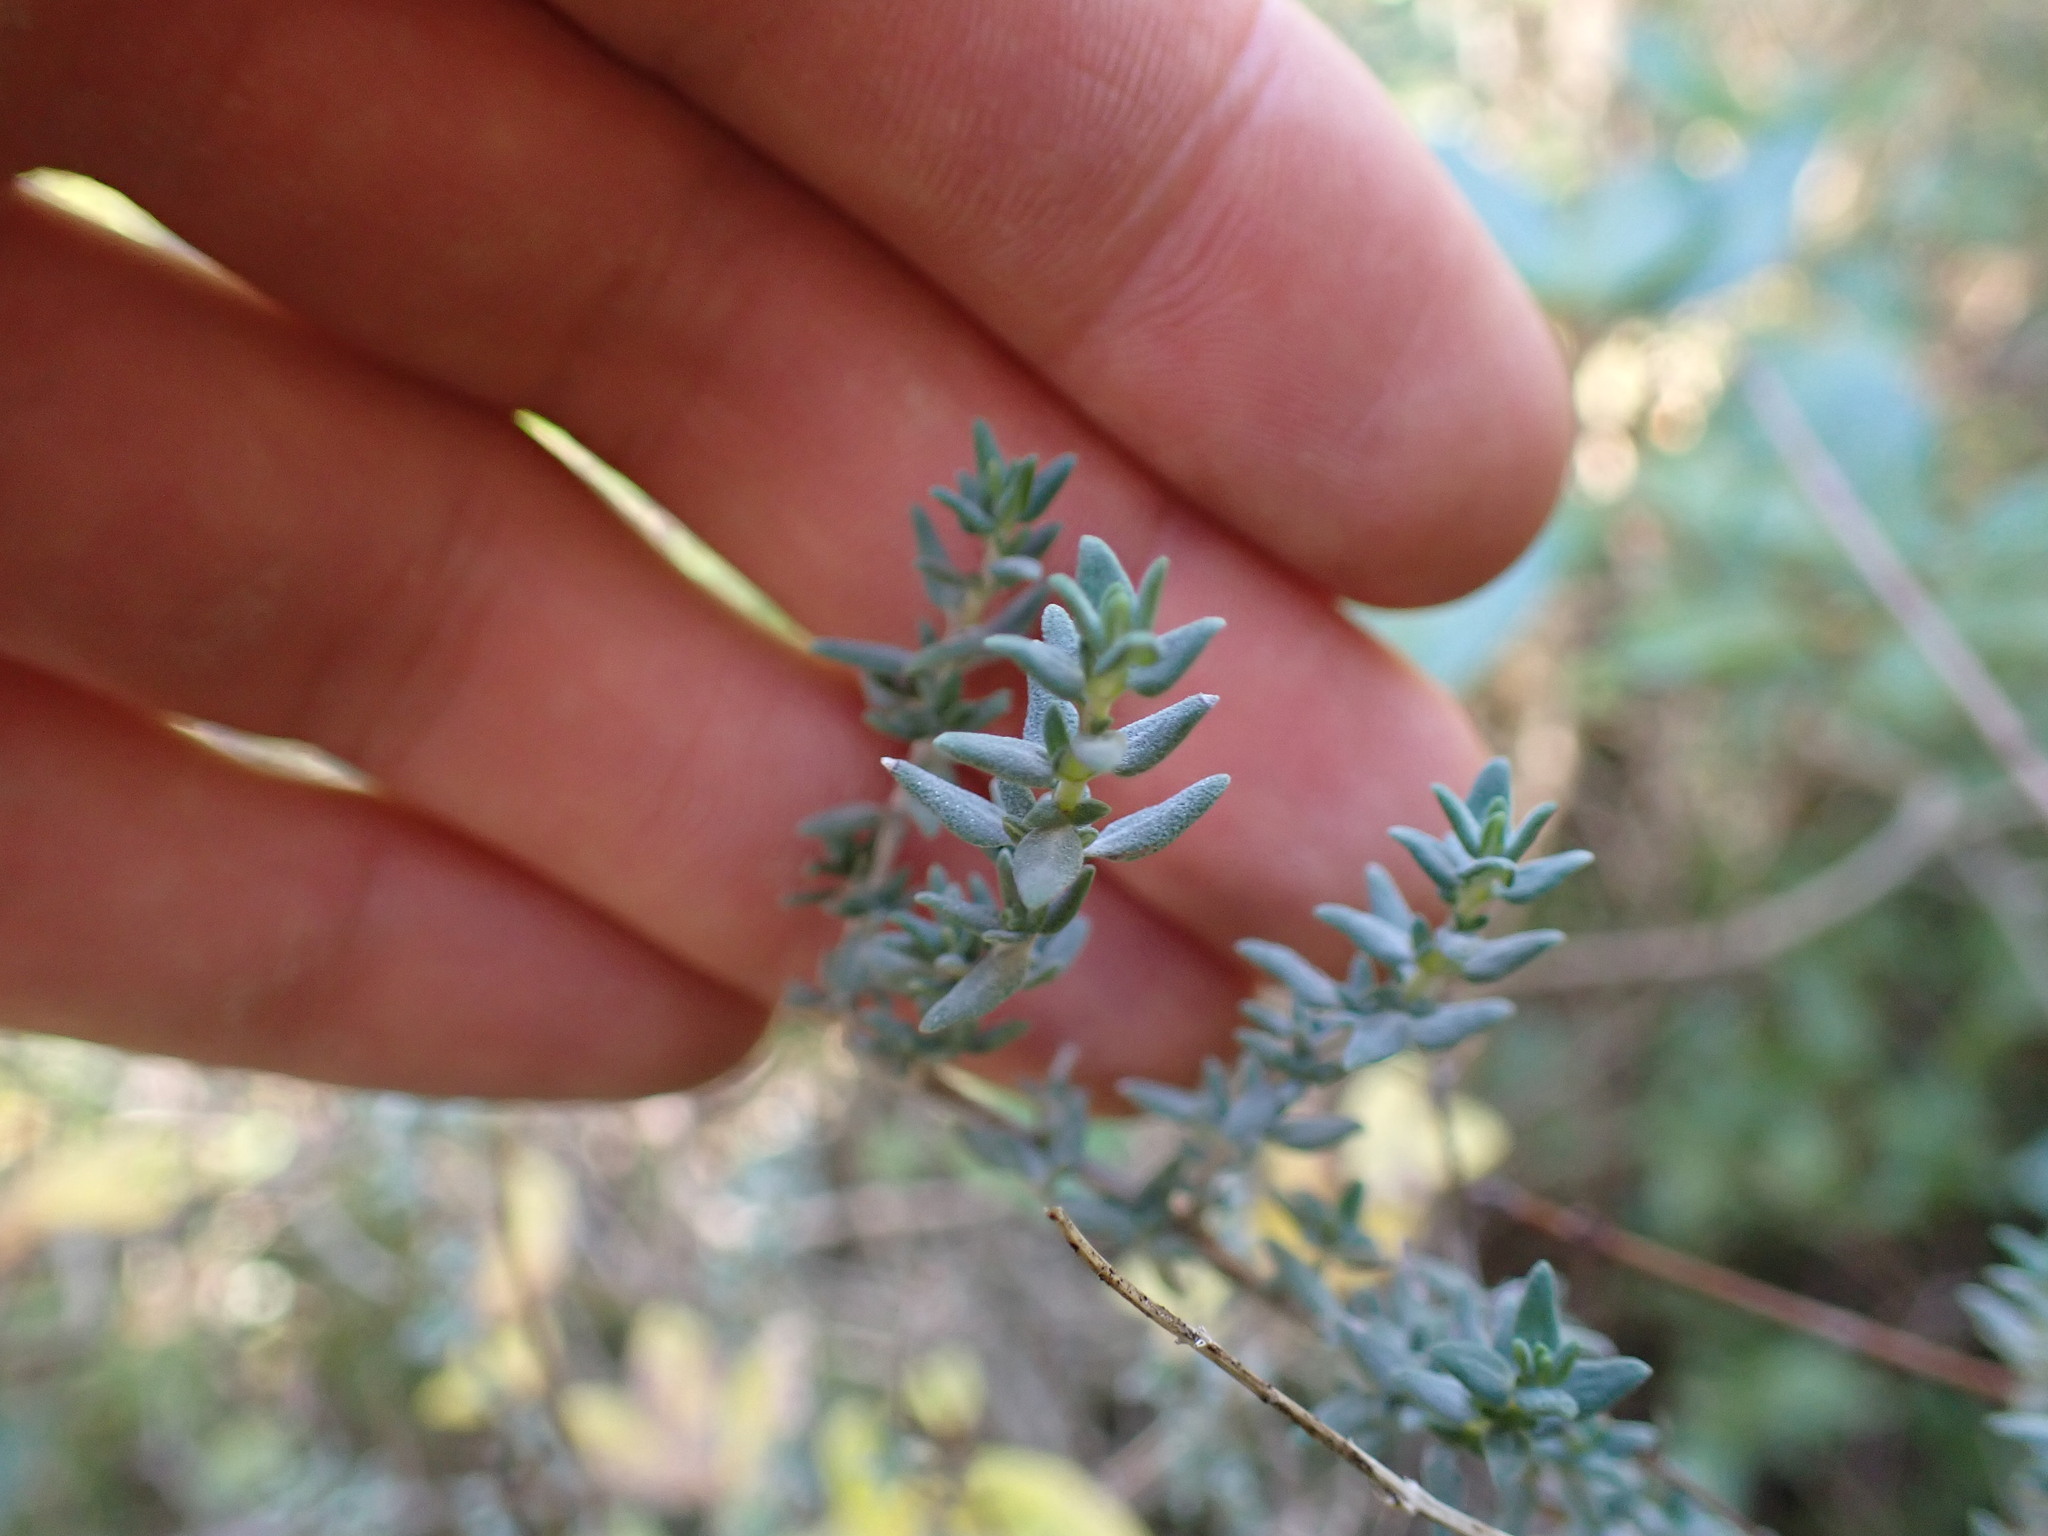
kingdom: Plantae
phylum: Tracheophyta
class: Magnoliopsida
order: Lamiales
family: Lamiaceae
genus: Thymus
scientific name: Thymus vulgaris
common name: Garden thyme
